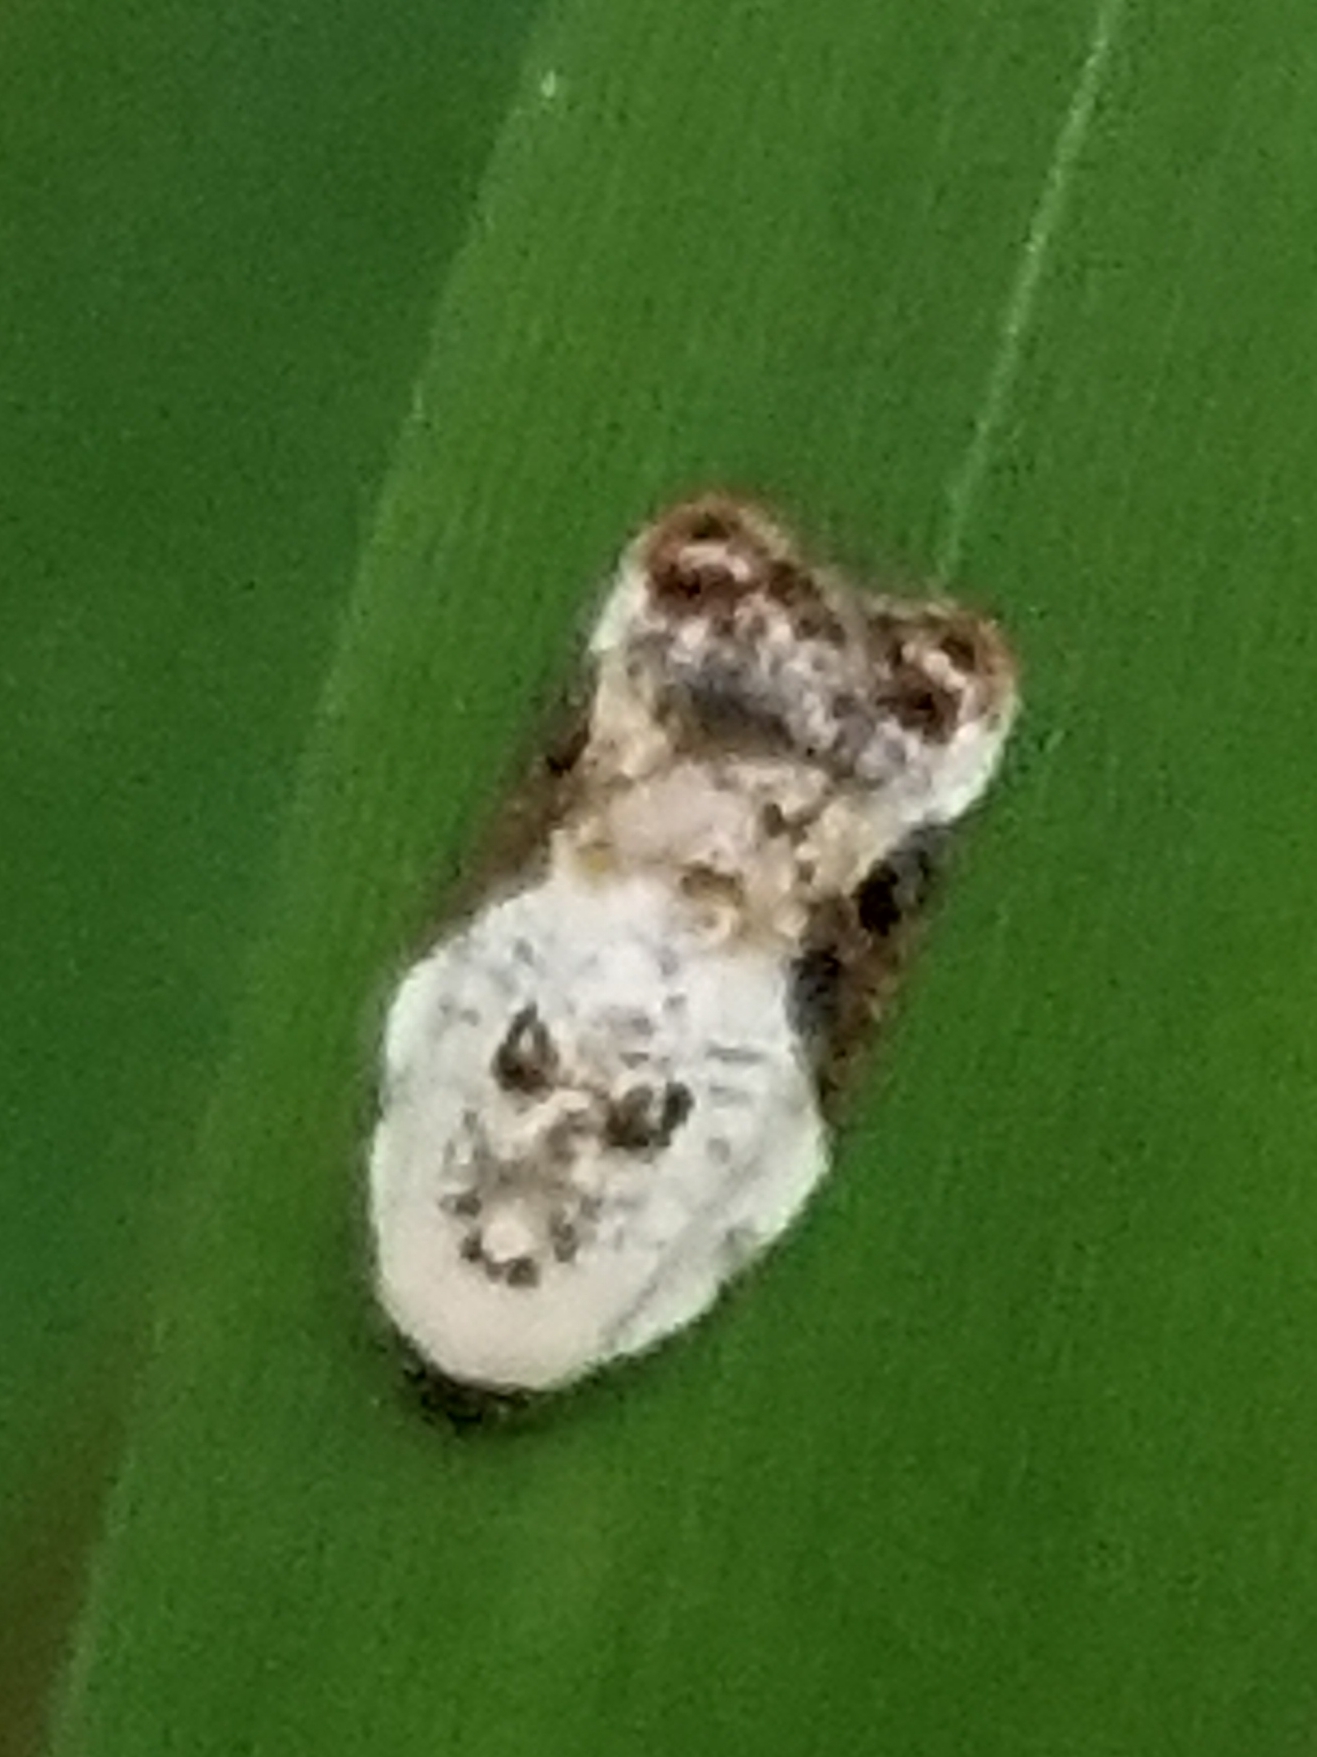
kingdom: Animalia
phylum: Arthropoda
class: Insecta
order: Lepidoptera
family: Tortricidae
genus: Acleris
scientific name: Acleris nivisellana
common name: Snowy-shouldered acleris moth
